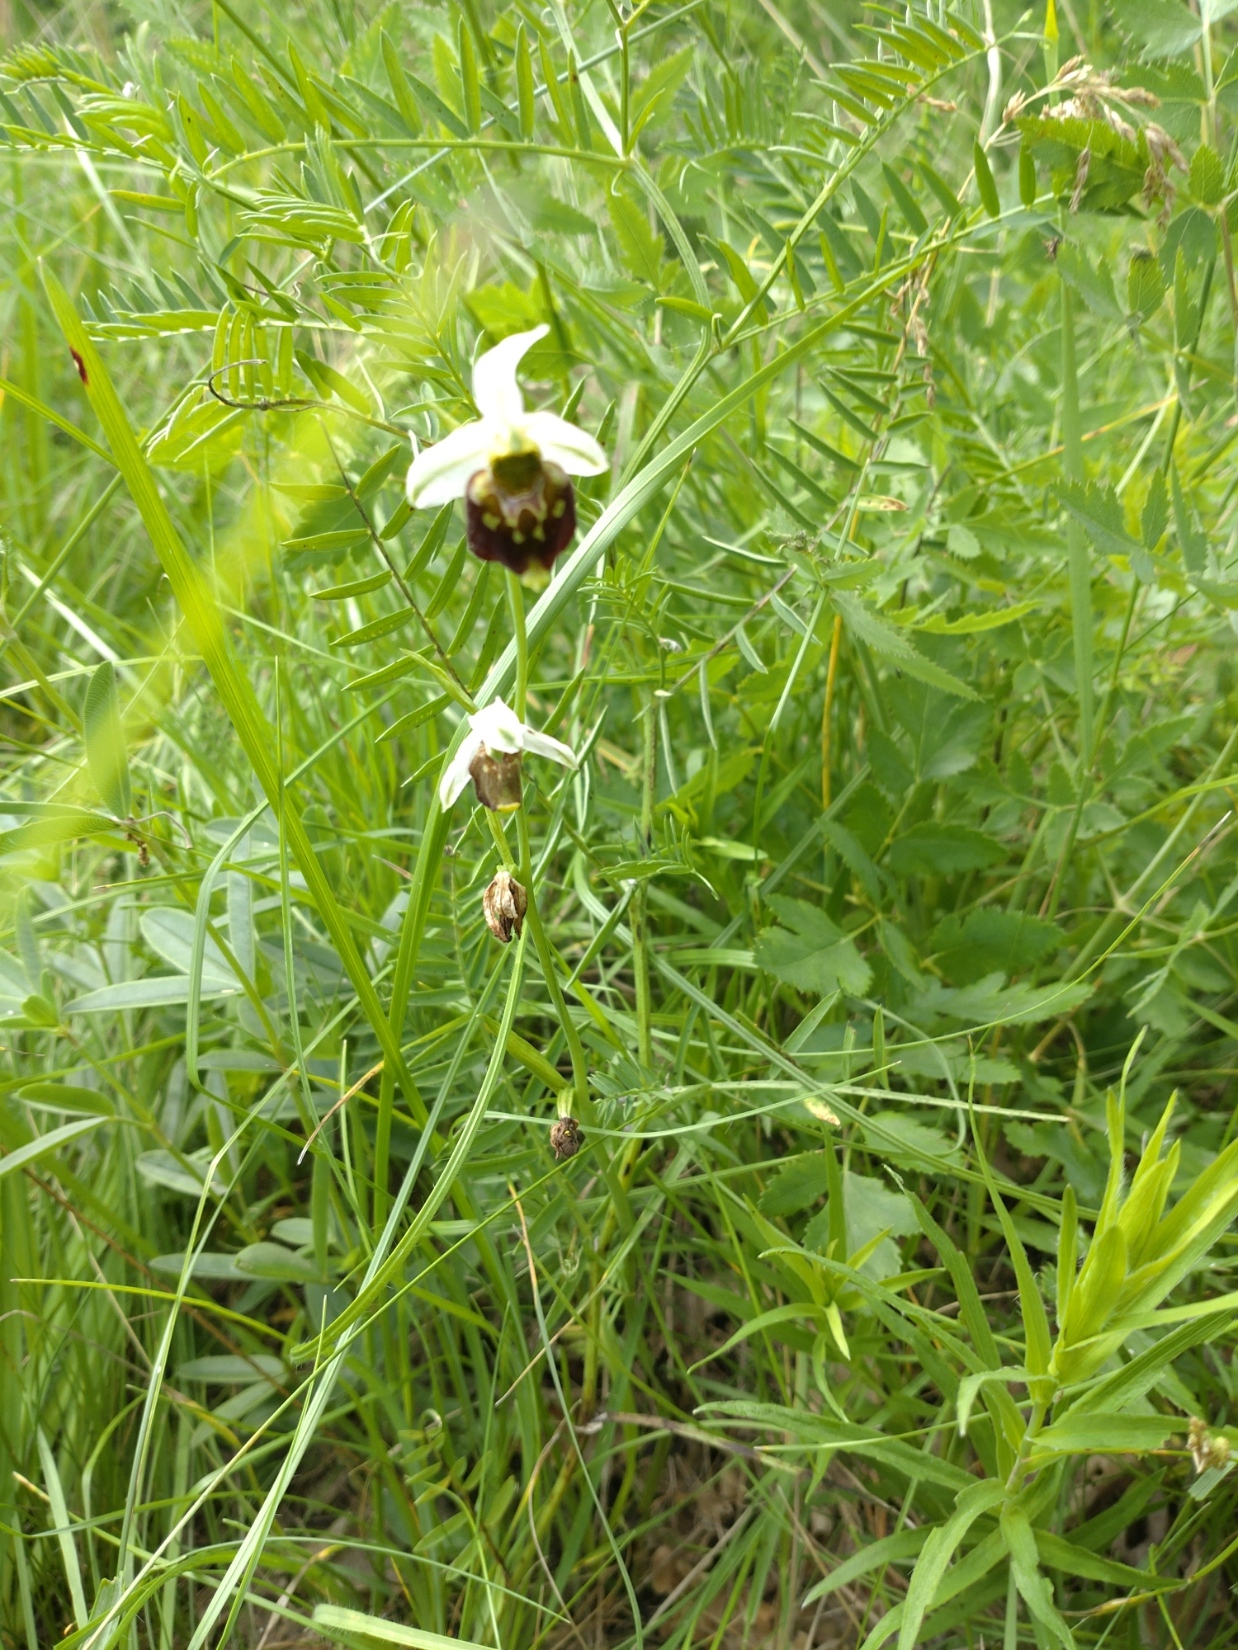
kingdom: Plantae
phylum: Tracheophyta
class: Liliopsida
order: Asparagales
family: Orchidaceae
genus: Ophrys
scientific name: Ophrys holosericea
